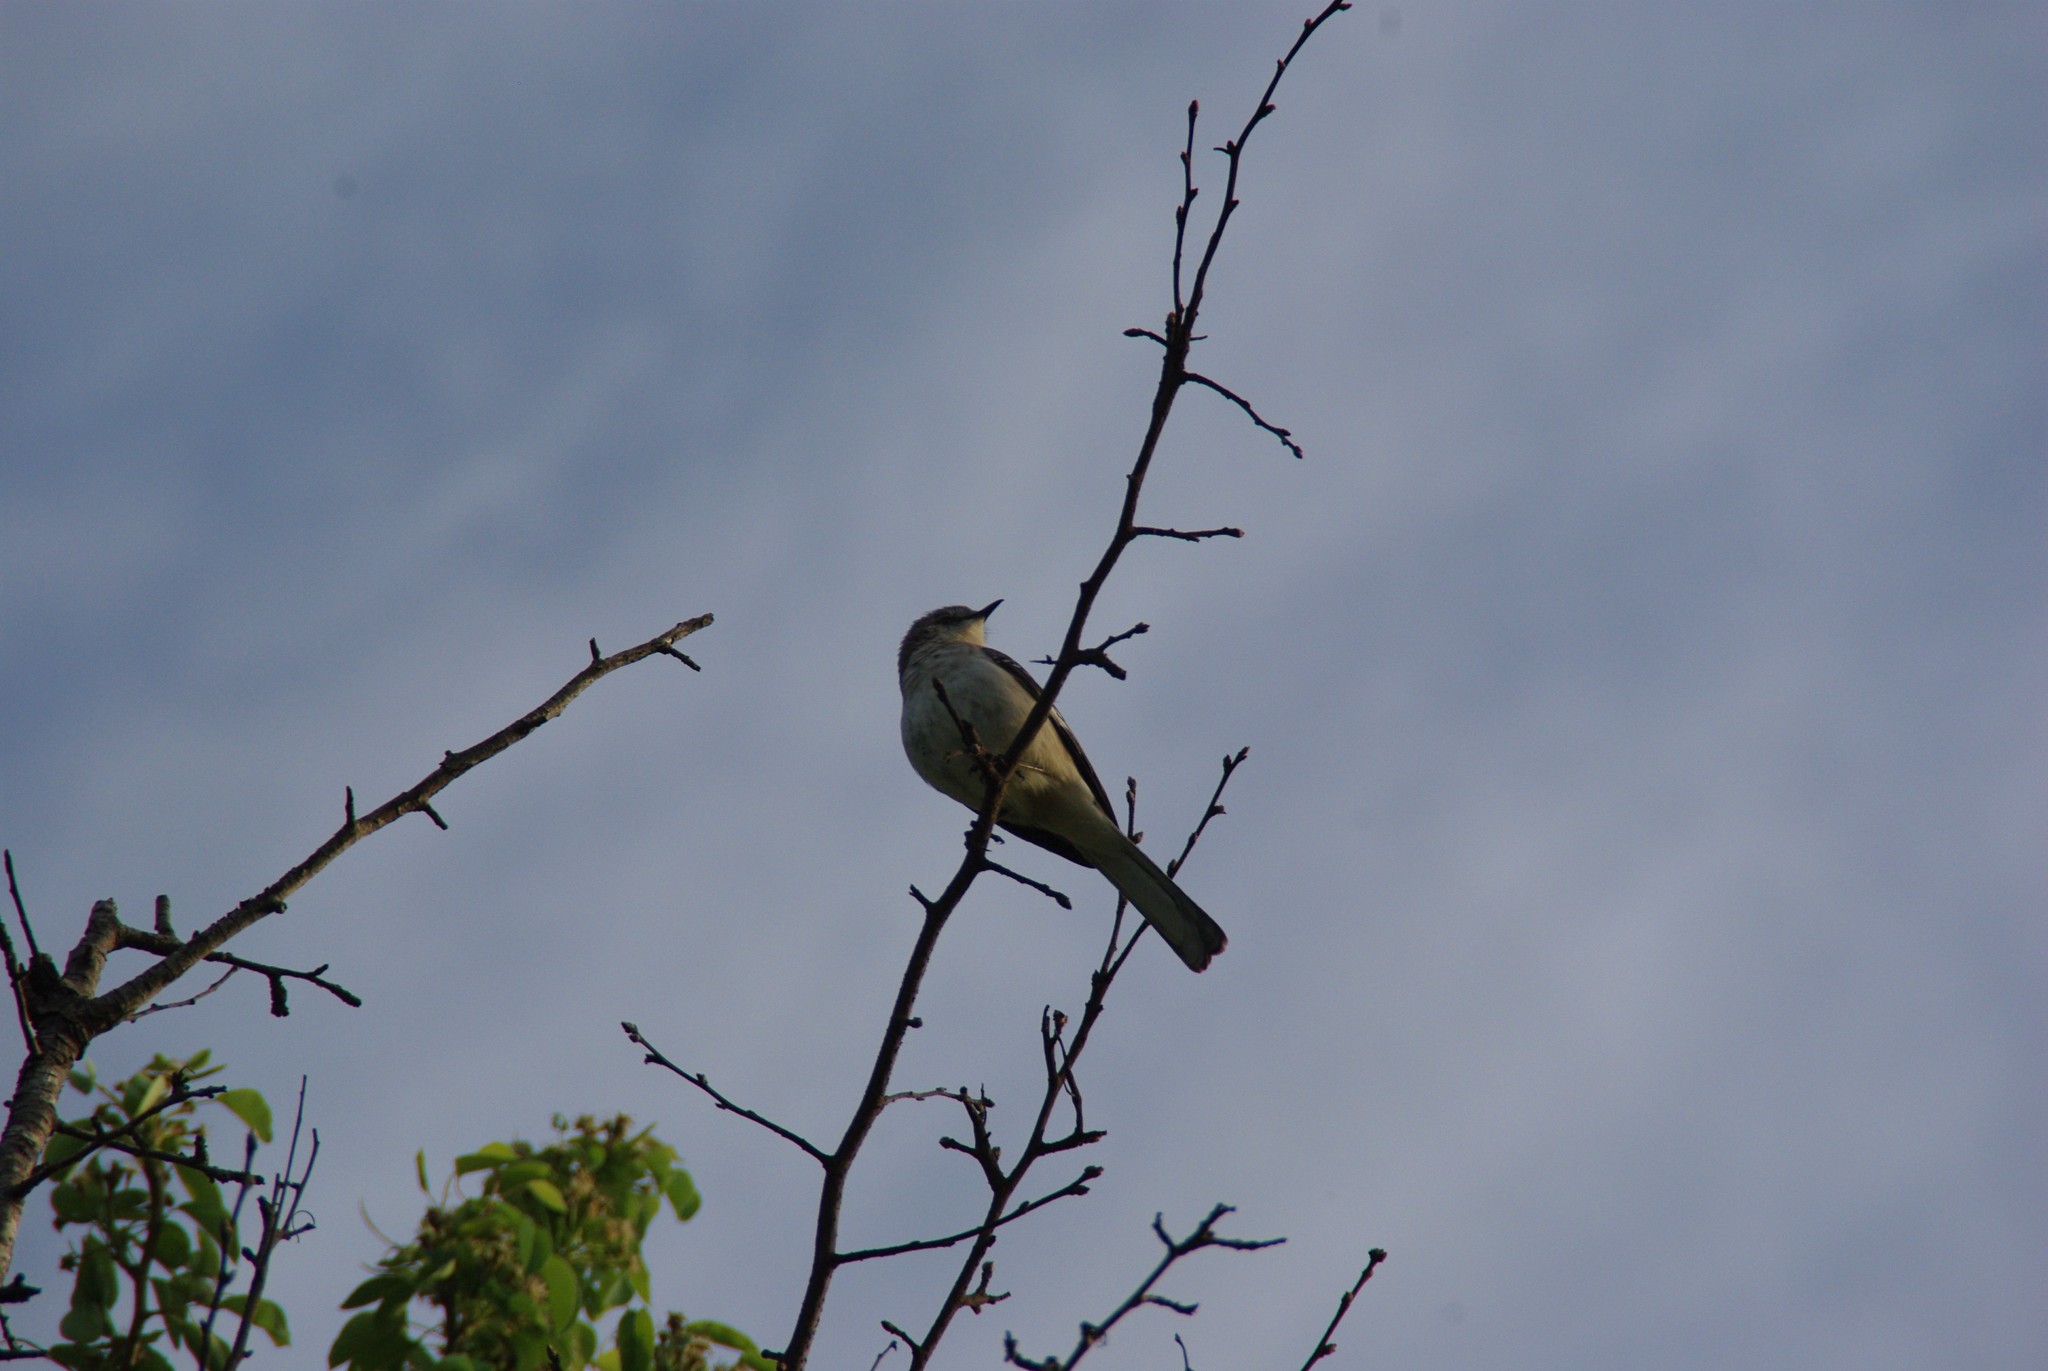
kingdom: Animalia
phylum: Chordata
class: Aves
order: Passeriformes
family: Mimidae
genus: Mimus
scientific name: Mimus polyglottos
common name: Northern mockingbird
